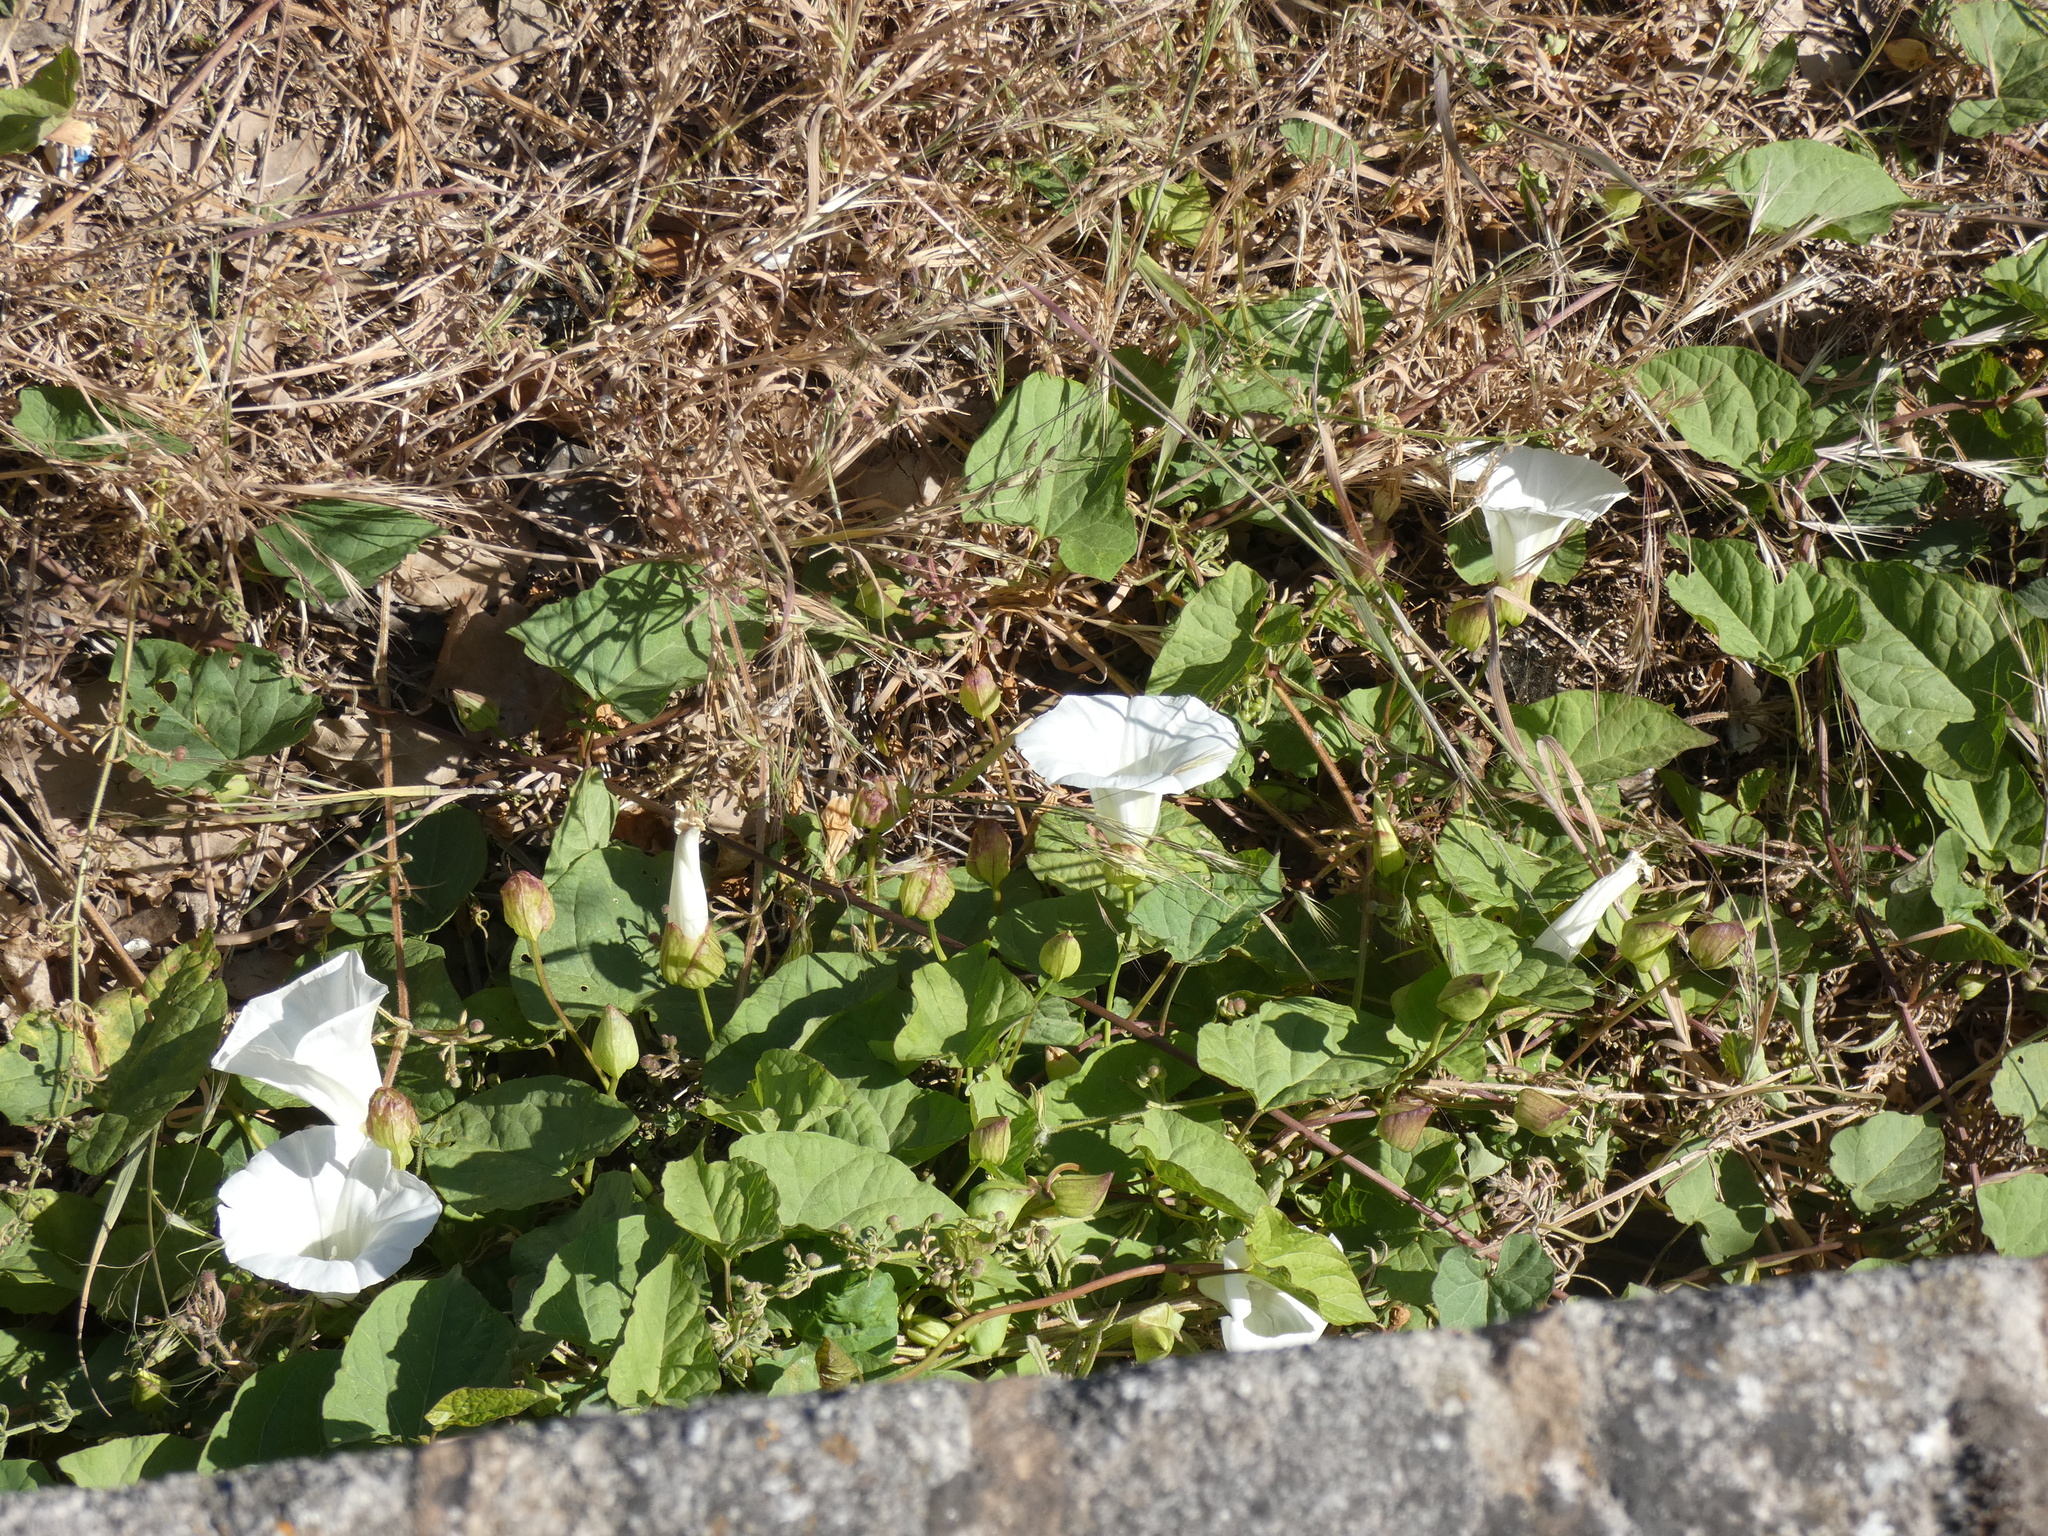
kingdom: Plantae
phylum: Tracheophyta
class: Magnoliopsida
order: Solanales
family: Convolvulaceae
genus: Calystegia
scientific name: Calystegia silvatica
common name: Large bindweed
